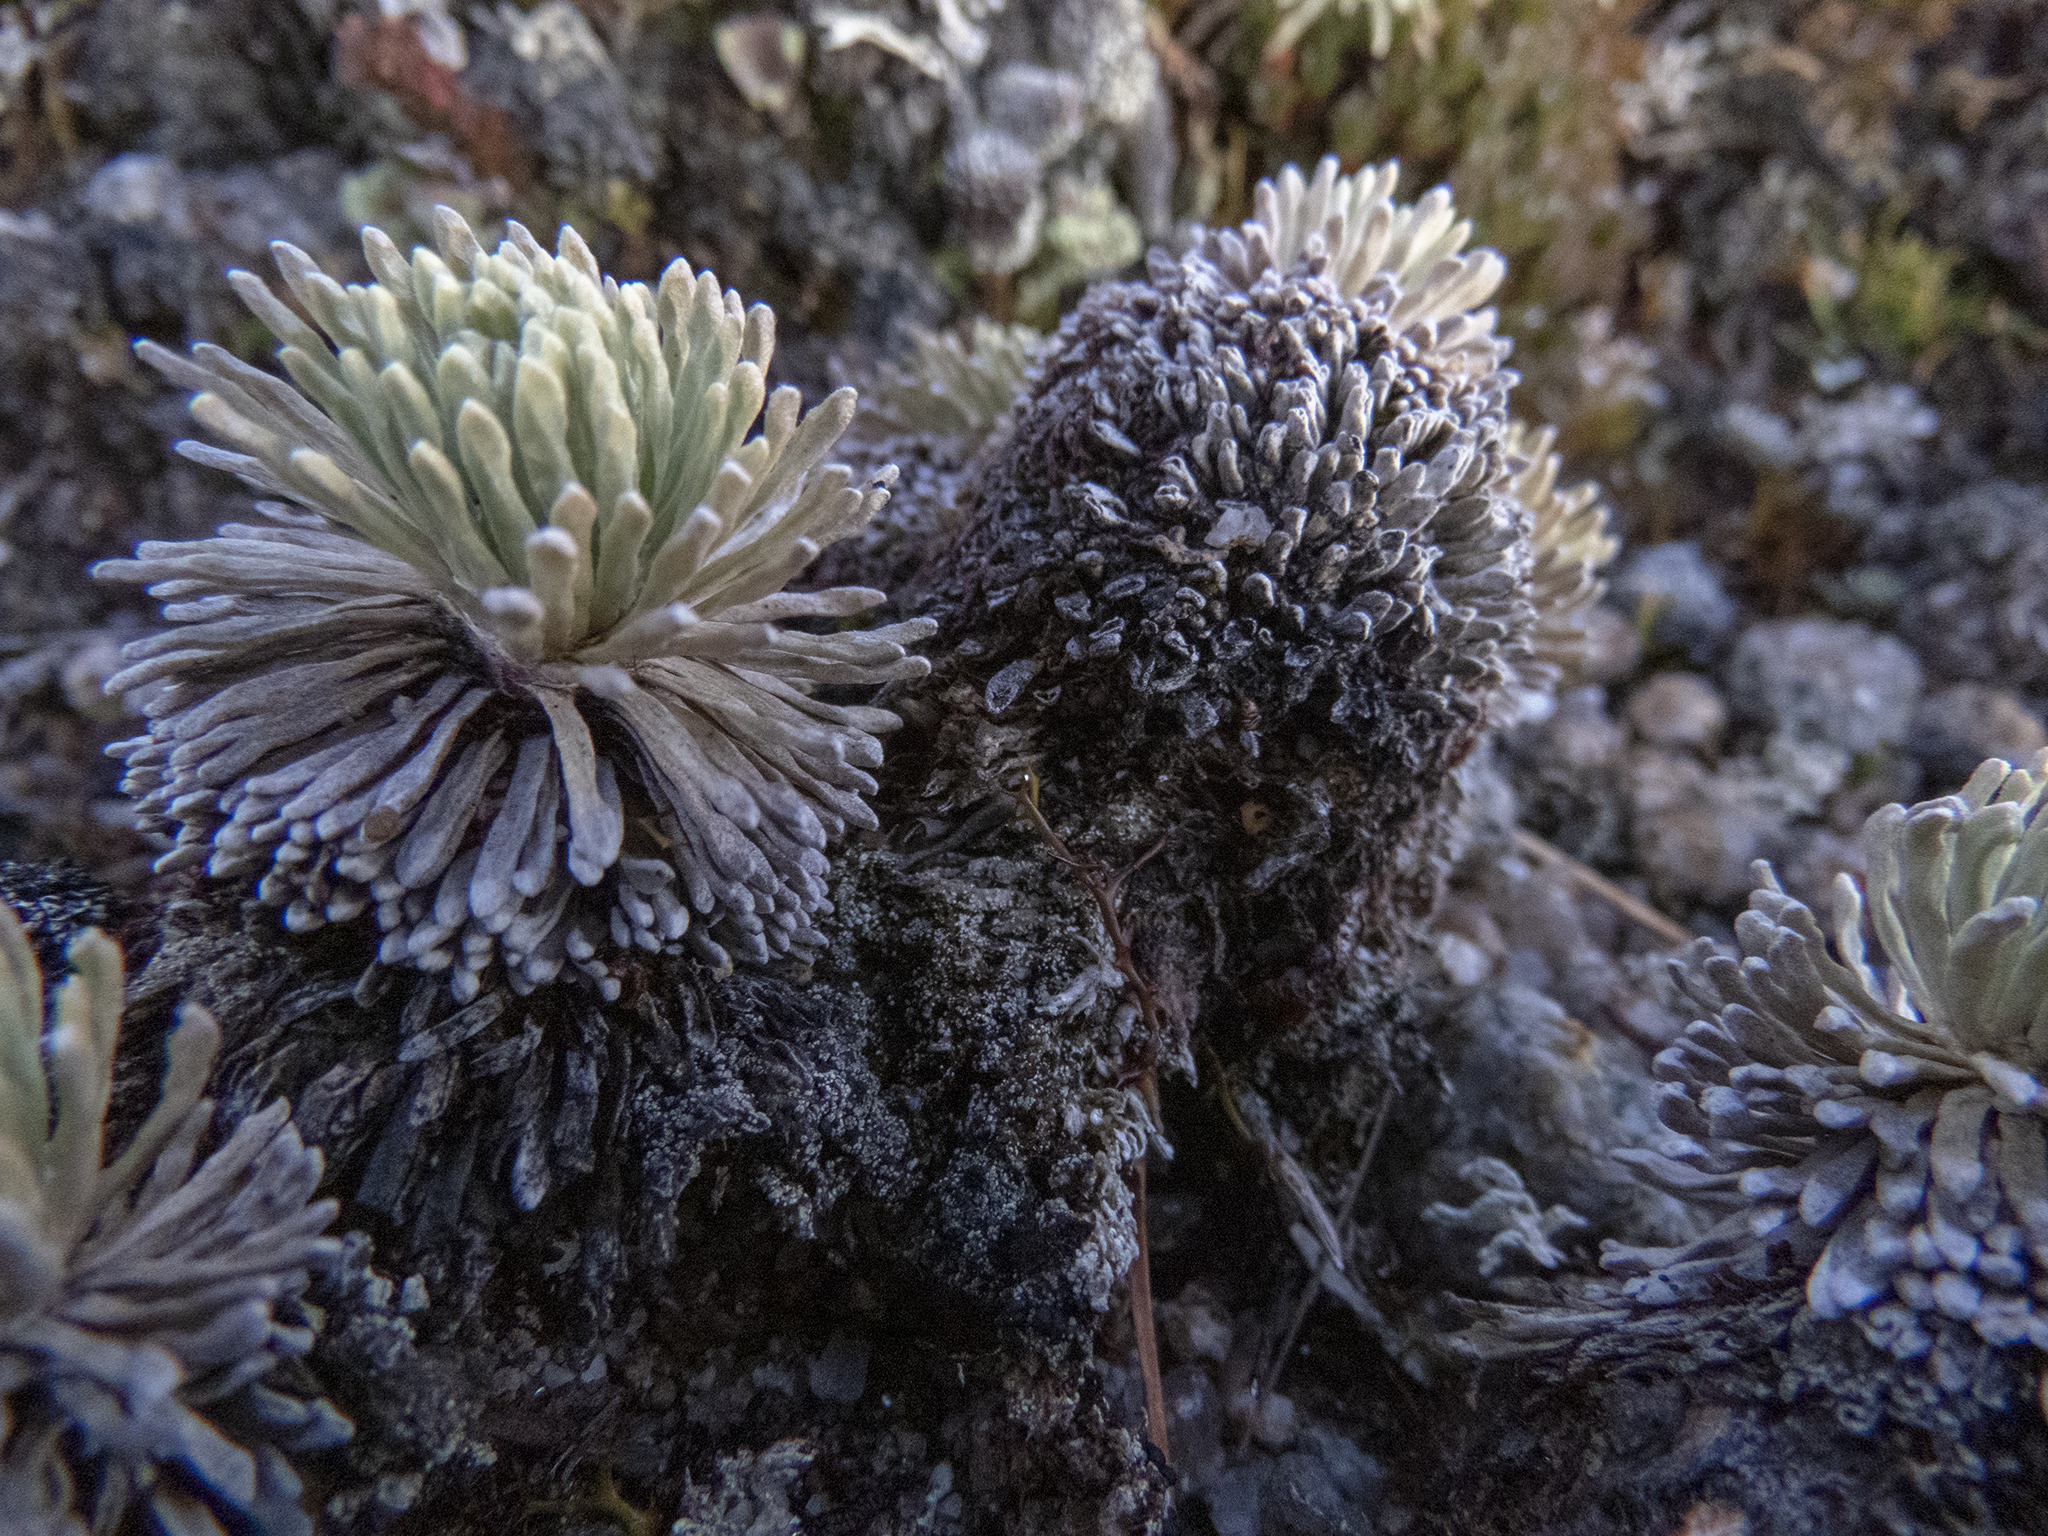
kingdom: Plantae
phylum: Tracheophyta
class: Magnoliopsida
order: Asterales
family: Asteraceae
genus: Celmisia
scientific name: Celmisia sessiliflora
